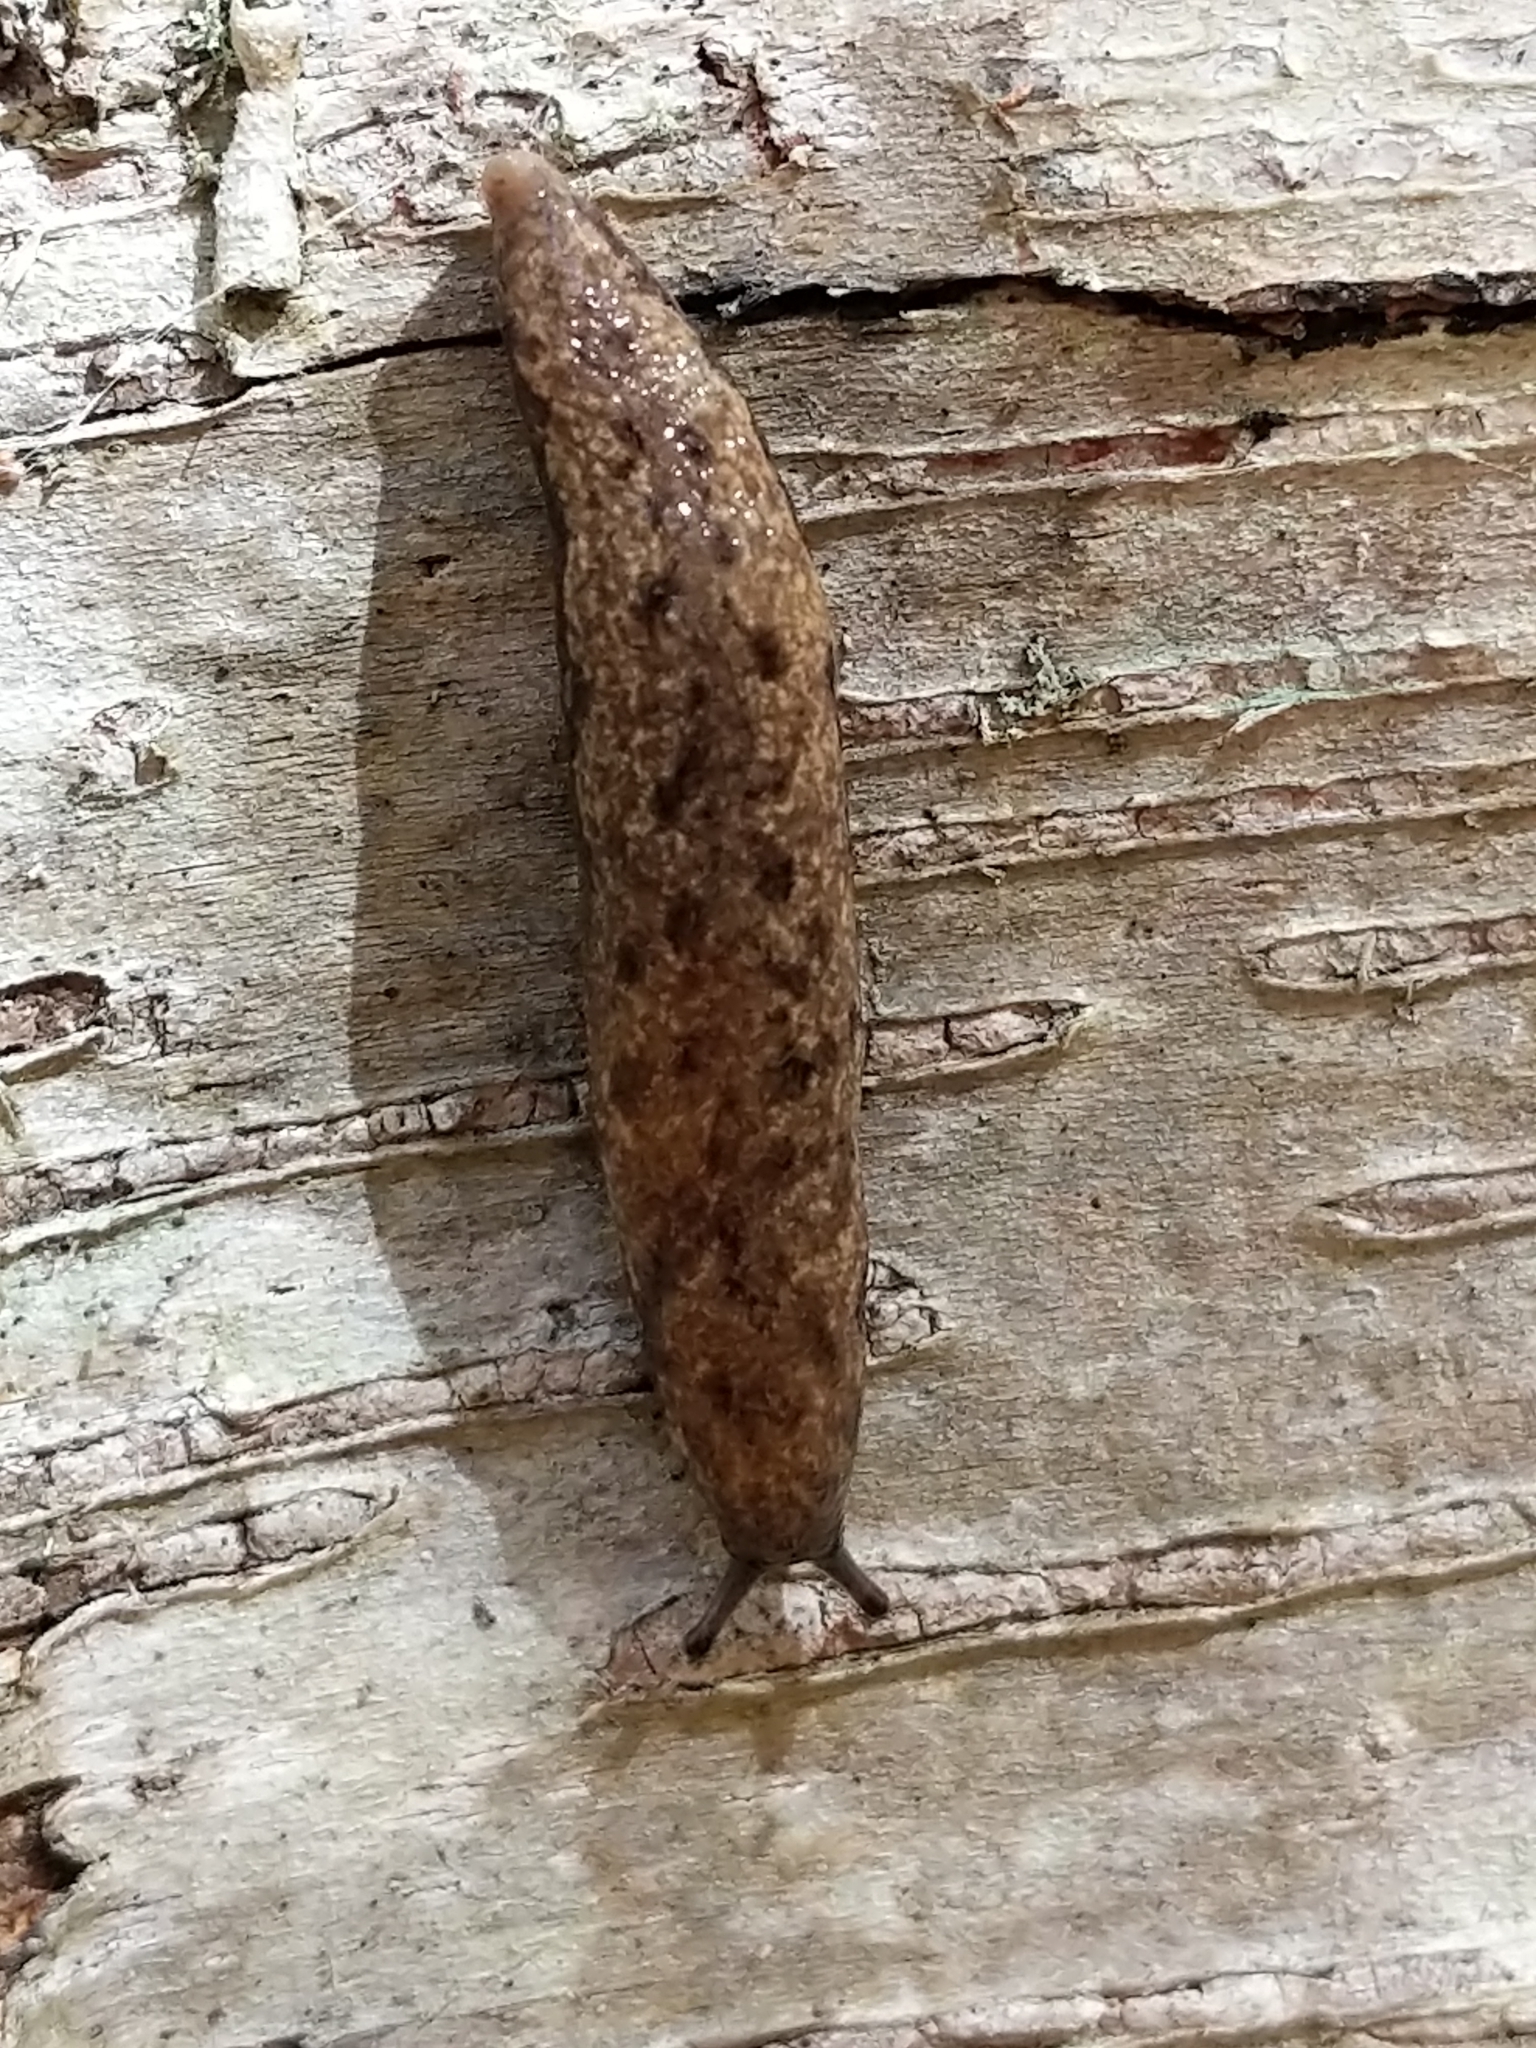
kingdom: Animalia
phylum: Mollusca
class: Gastropoda
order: Stylommatophora
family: Philomycidae
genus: Megapallifera
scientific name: Megapallifera mutabilis
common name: Changeable mantleslug
